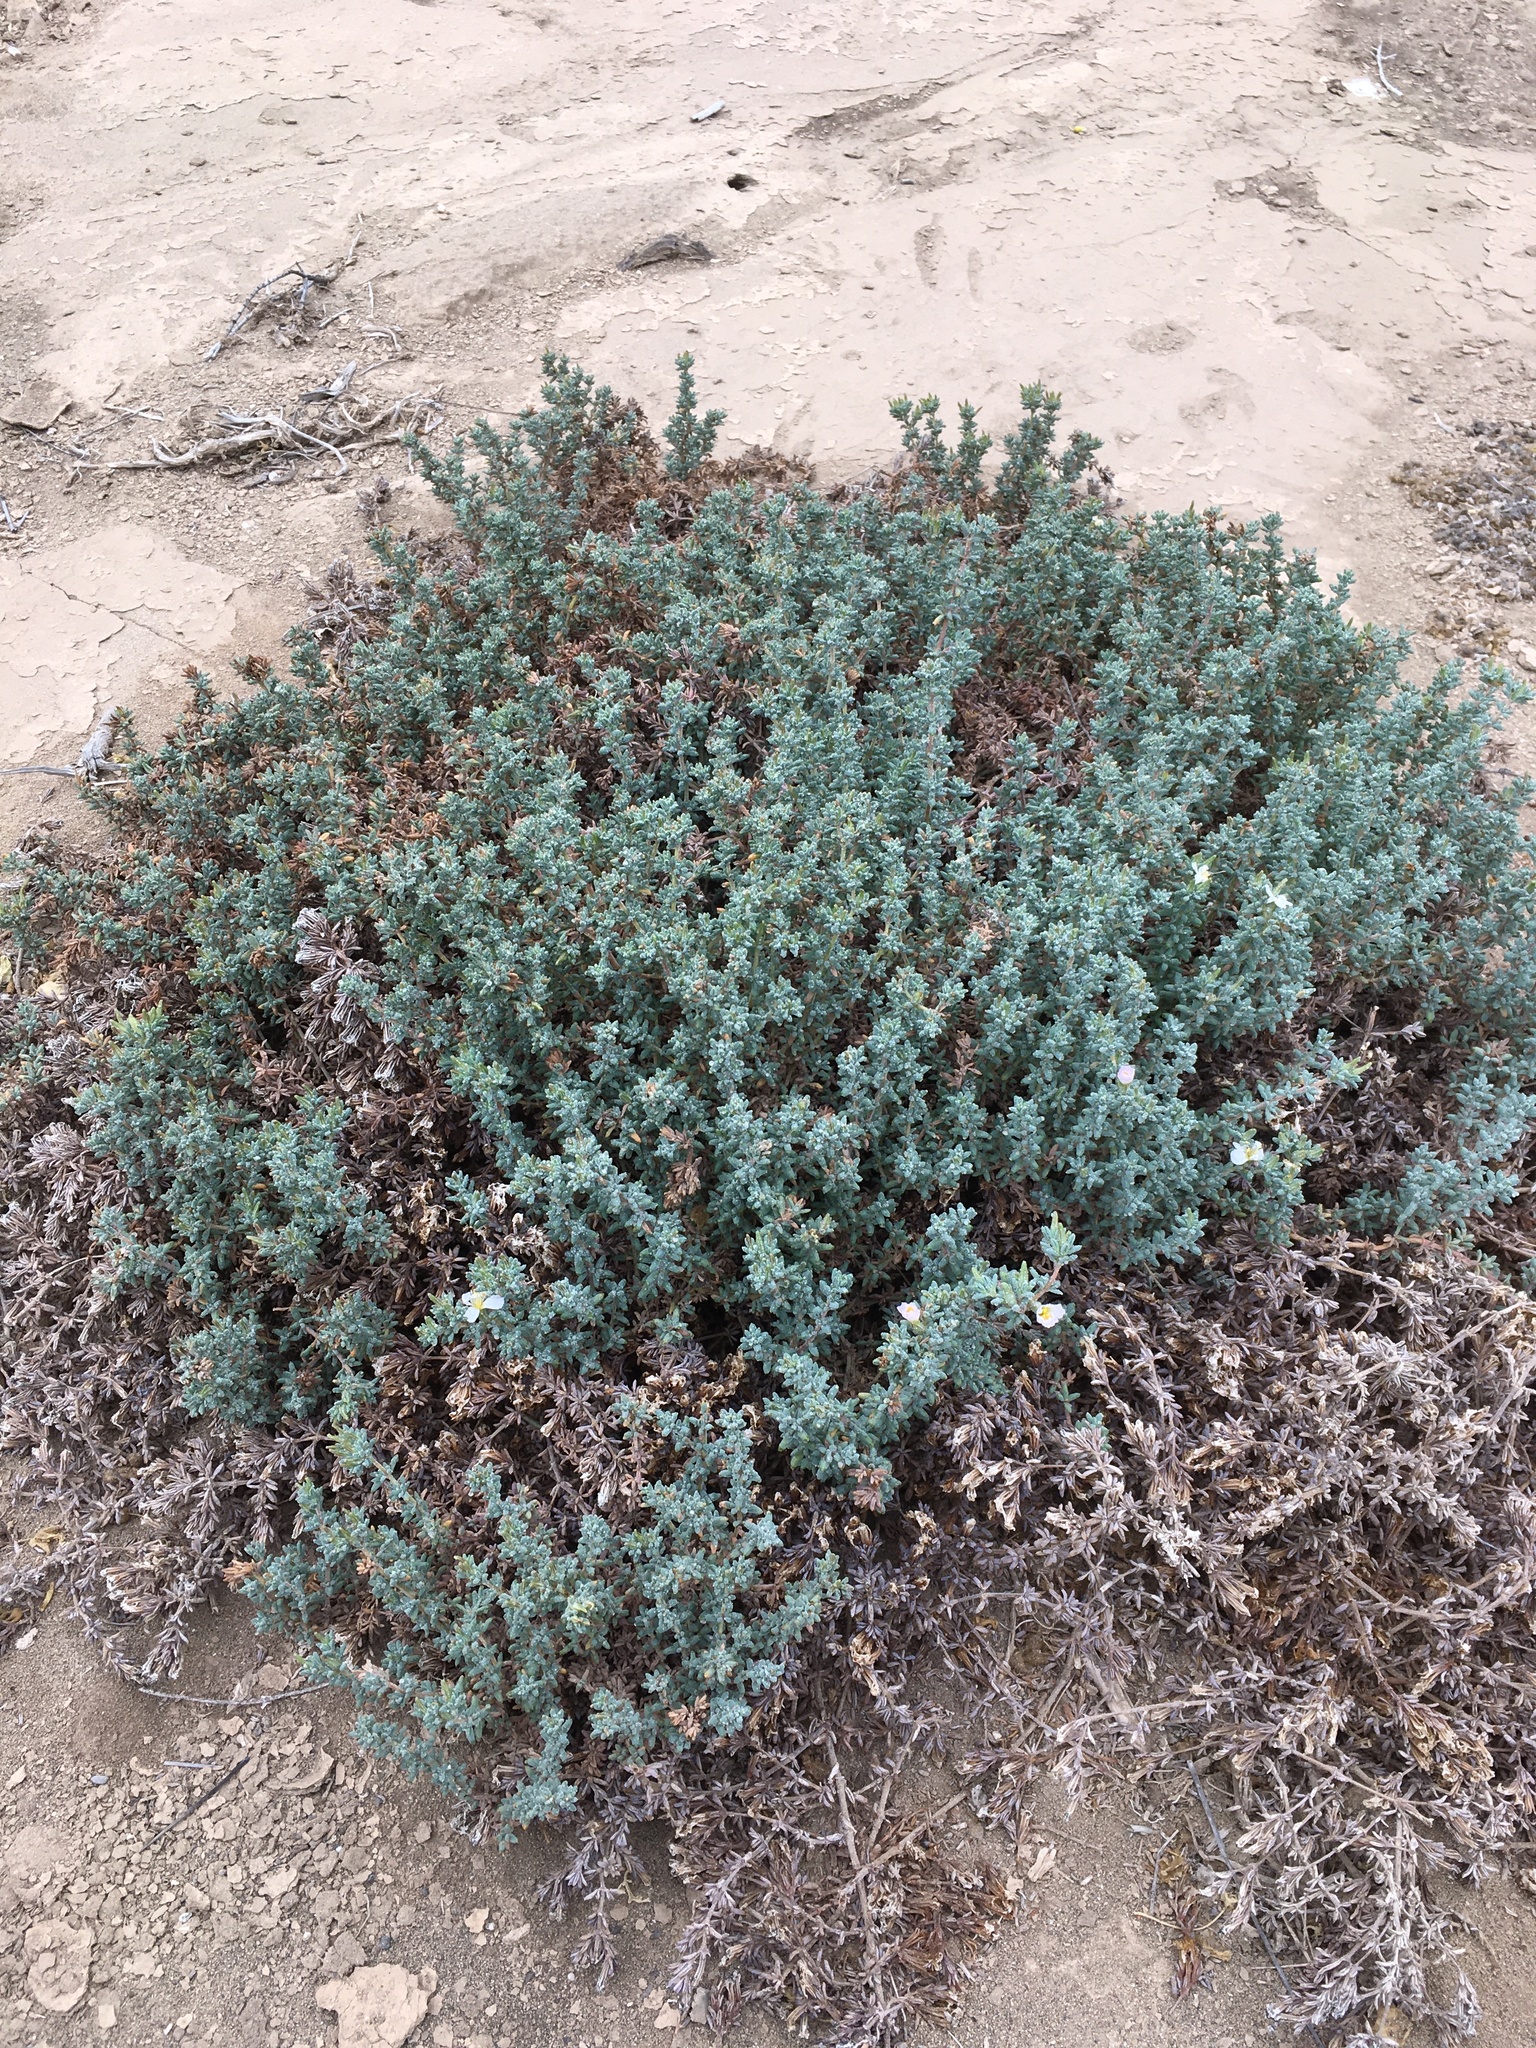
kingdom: Plantae
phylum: Tracheophyta
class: Magnoliopsida
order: Caryophyllales
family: Frankeniaceae
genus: Frankenia
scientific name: Frankenia chilensis
